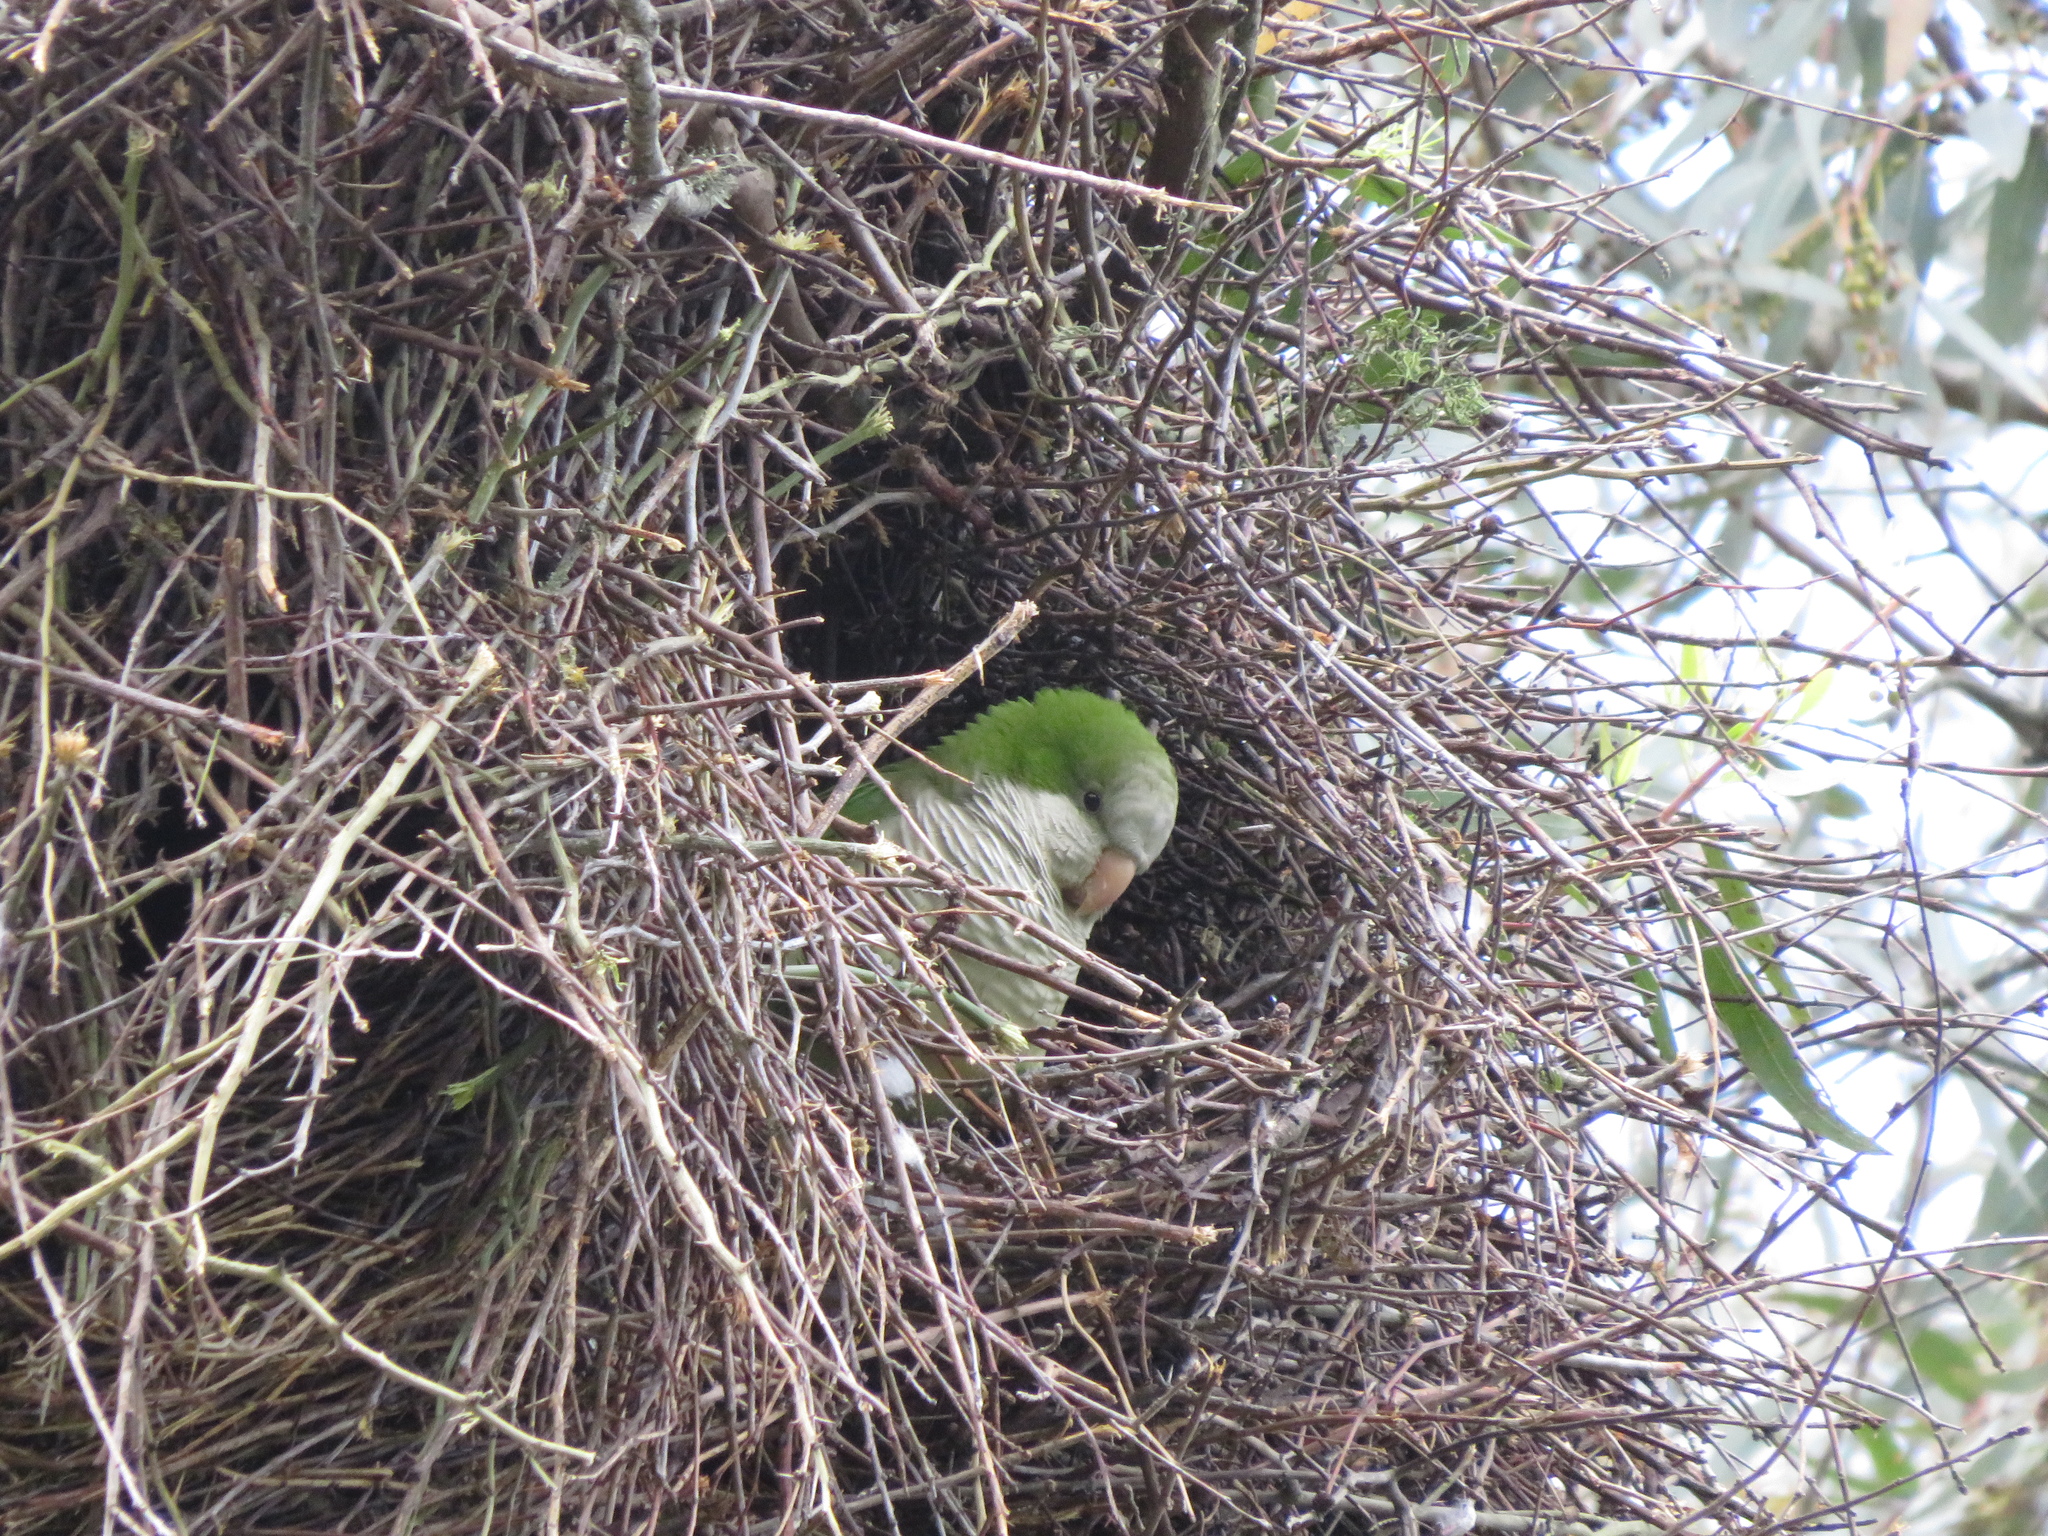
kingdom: Animalia
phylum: Chordata
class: Aves
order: Psittaciformes
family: Psittacidae
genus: Myiopsitta
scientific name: Myiopsitta monachus
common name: Monk parakeet
